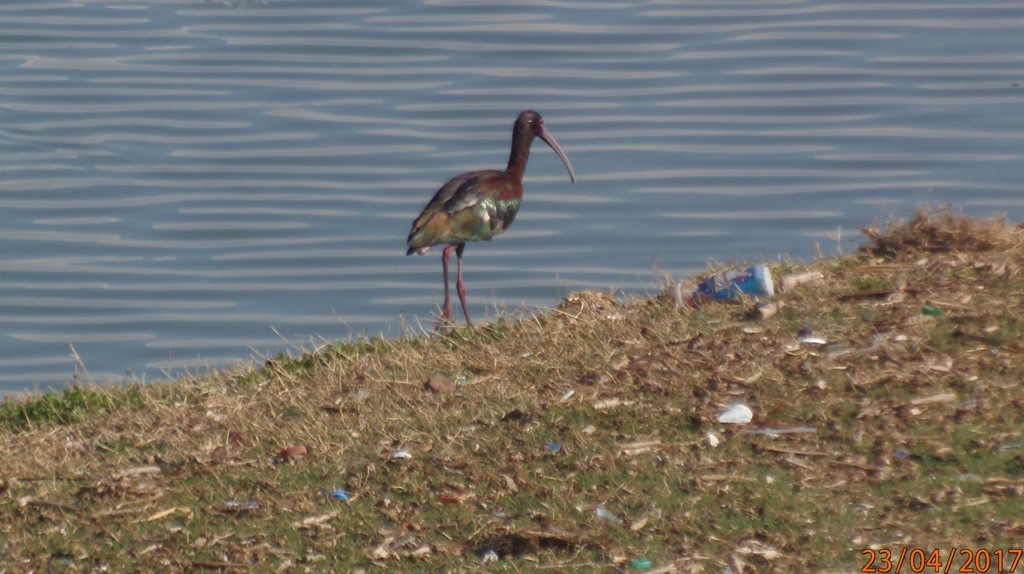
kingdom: Animalia
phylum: Chordata
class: Aves
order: Pelecaniformes
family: Threskiornithidae
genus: Plegadis
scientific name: Plegadis chihi
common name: White-faced ibis
